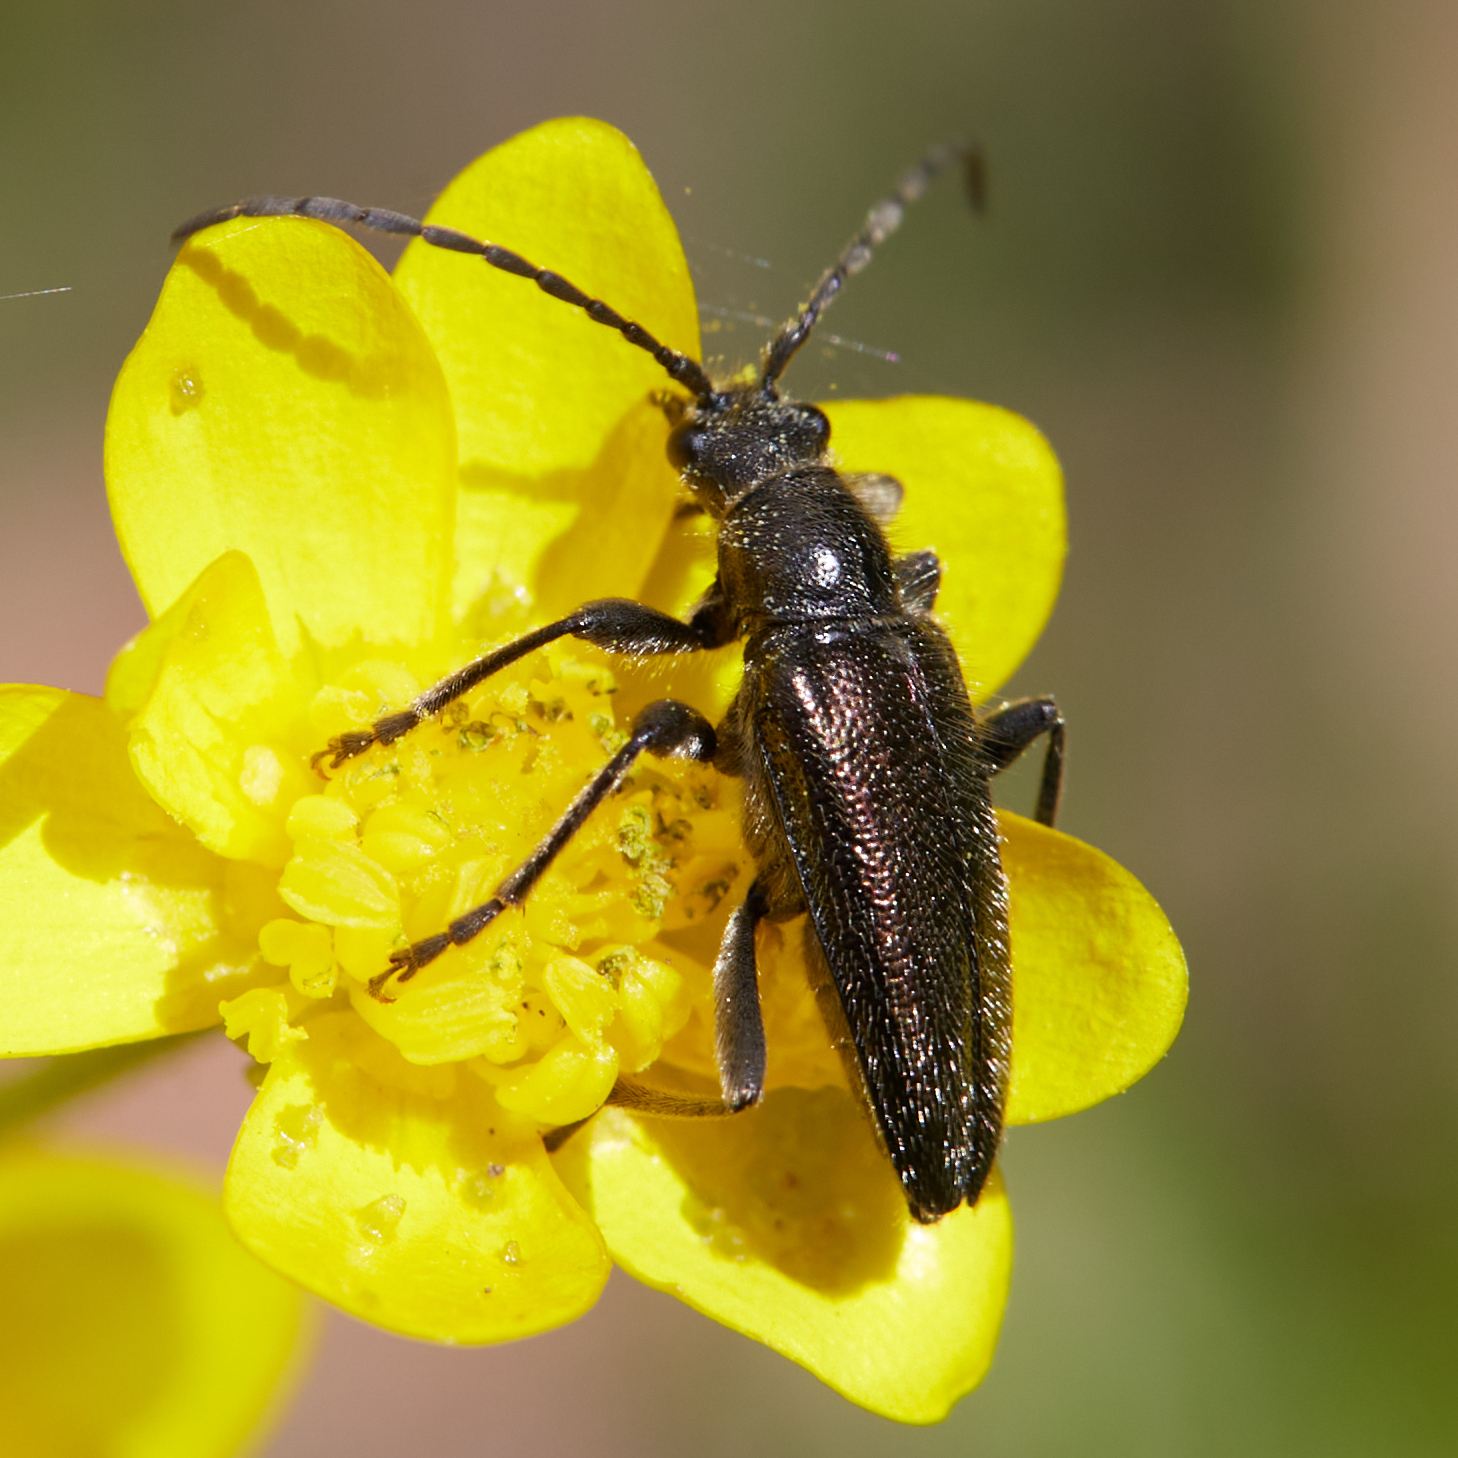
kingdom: Animalia
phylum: Arthropoda
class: Insecta
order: Coleoptera
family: Cerambycidae
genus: Brachysomida
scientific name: Brachysomida californica
